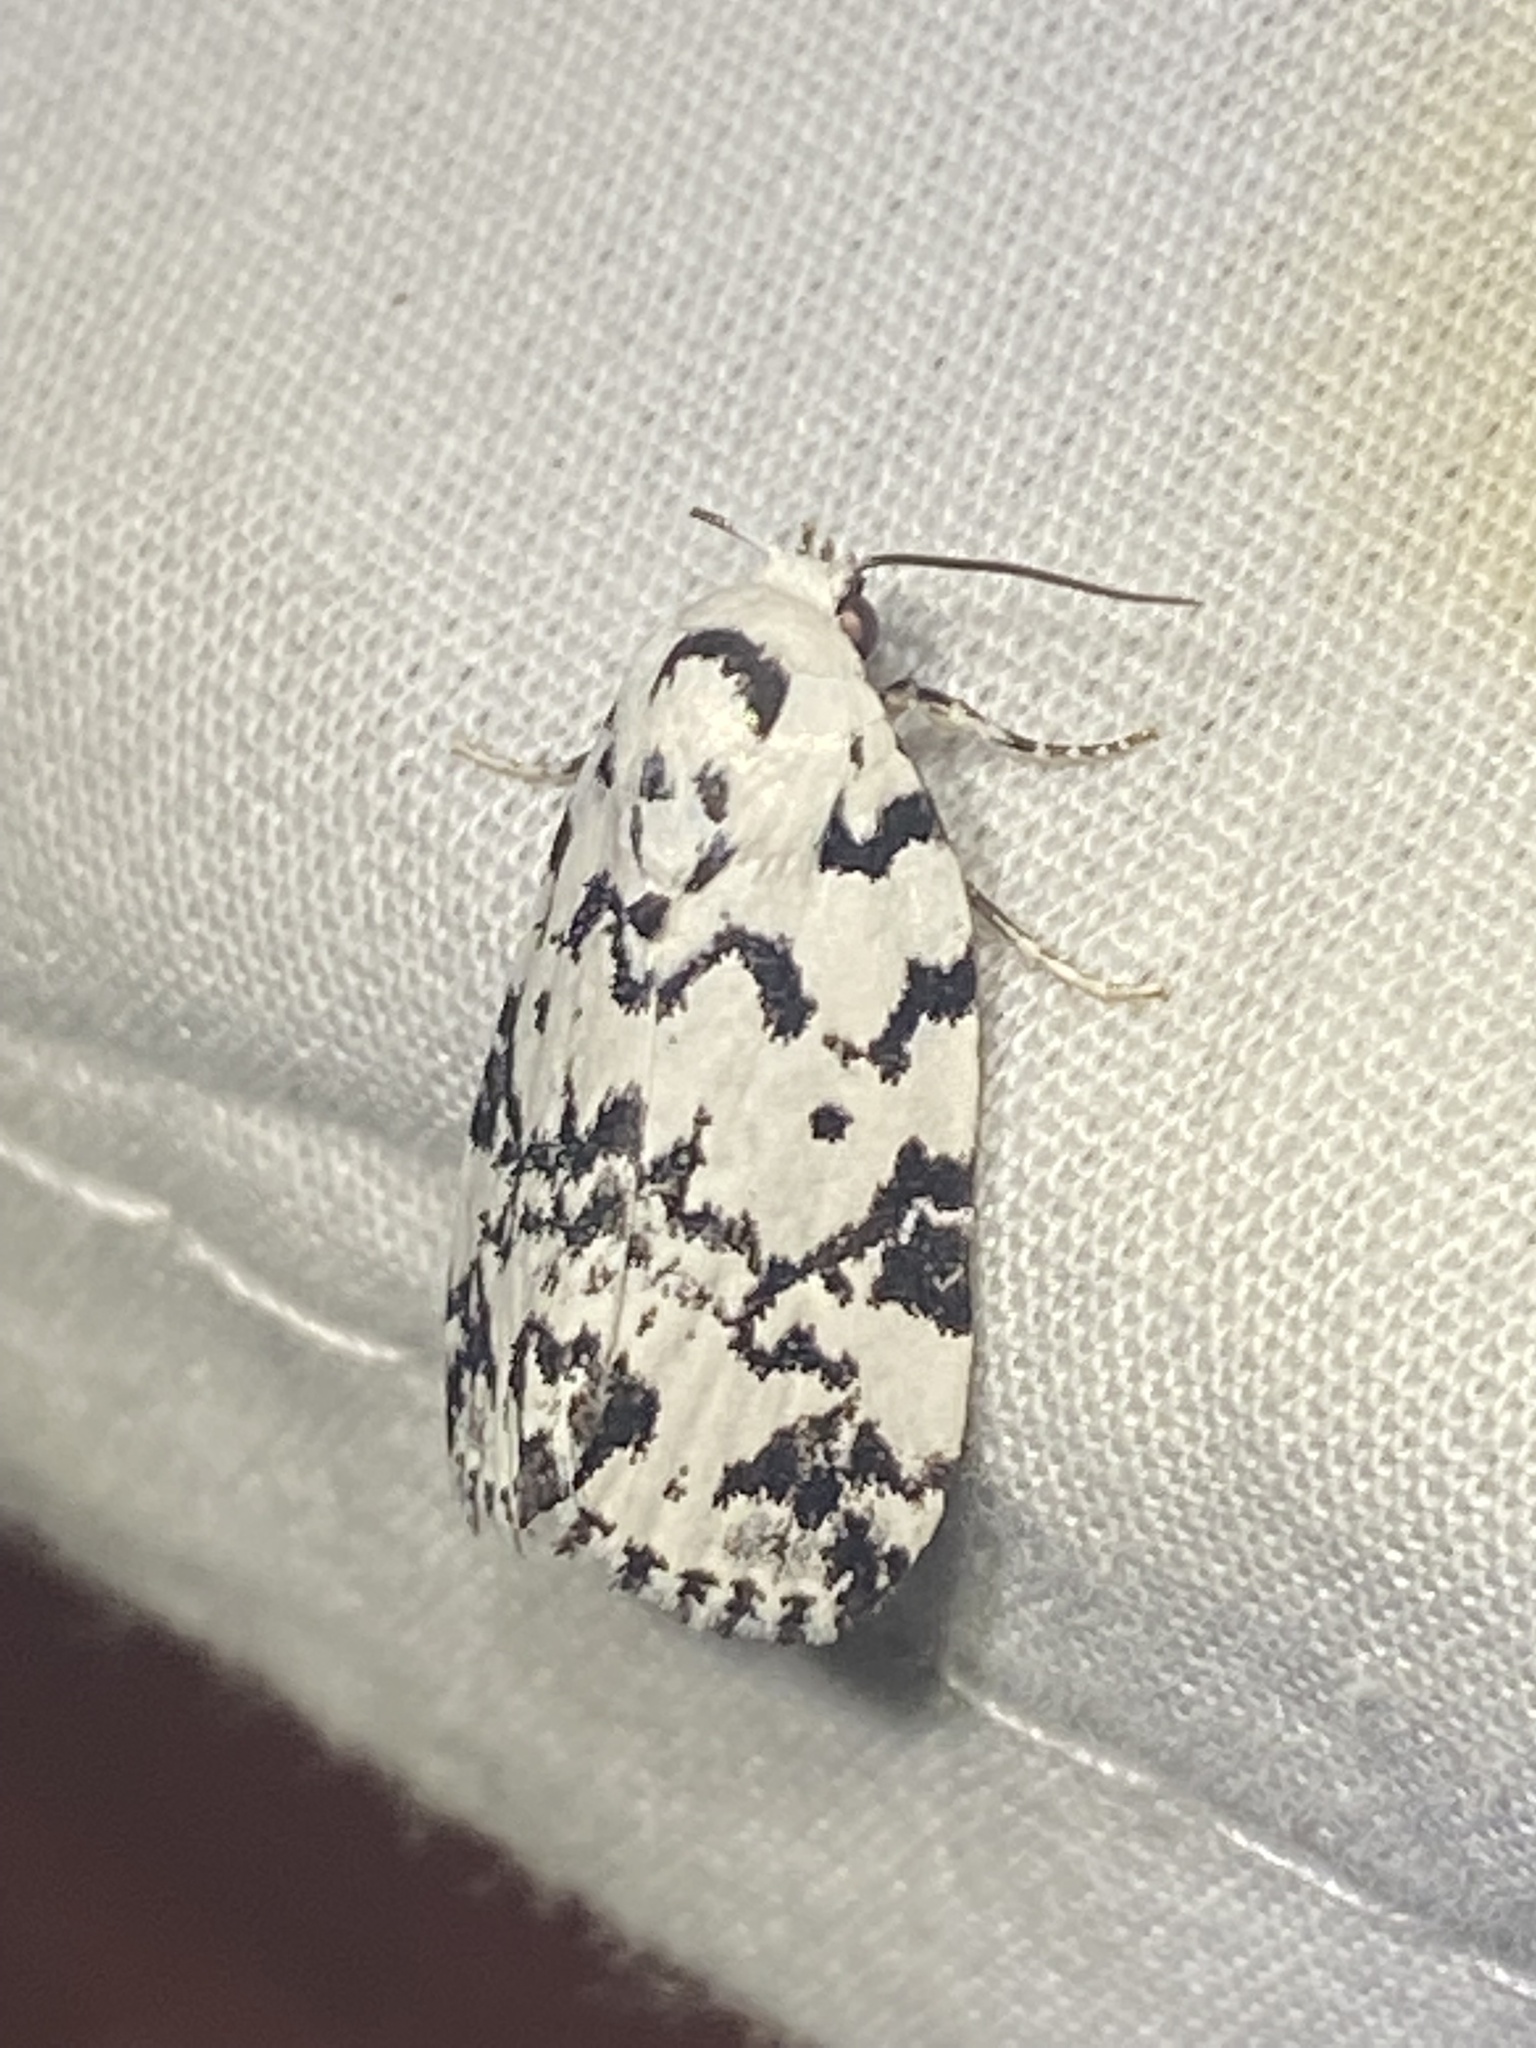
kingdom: Animalia
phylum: Arthropoda
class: Insecta
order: Lepidoptera
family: Noctuidae
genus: Polygrammate
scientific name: Polygrammate hebraeicum
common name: Hebrew moth
